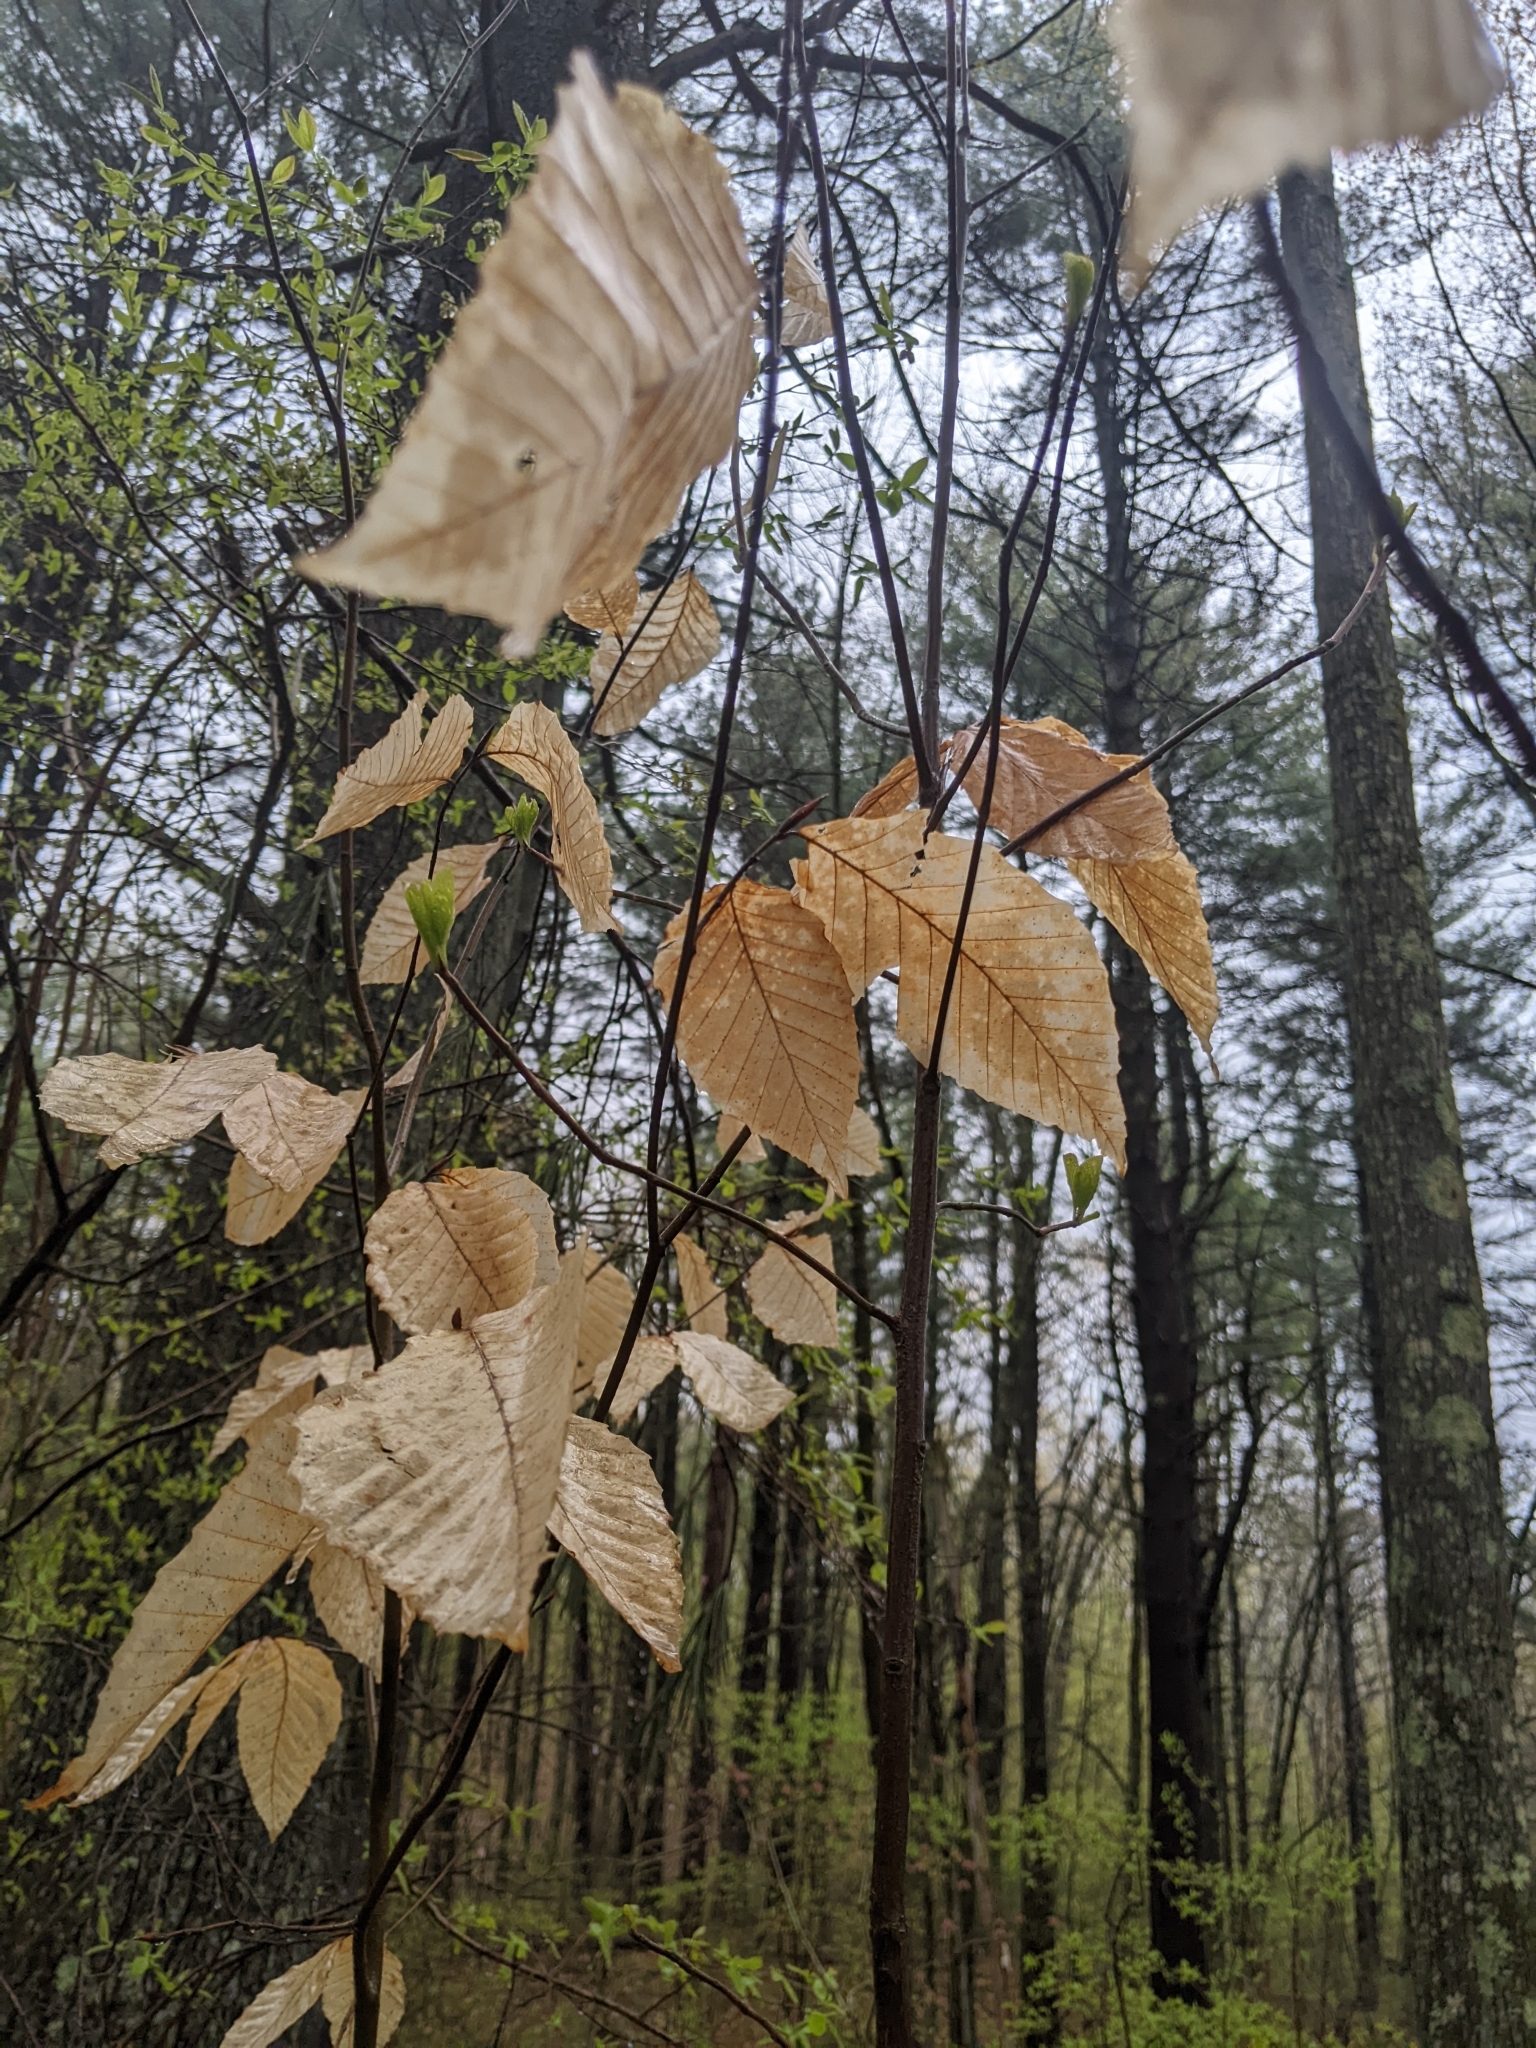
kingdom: Plantae
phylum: Tracheophyta
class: Magnoliopsida
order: Fagales
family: Fagaceae
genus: Fagus
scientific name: Fagus grandifolia
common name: American beech
